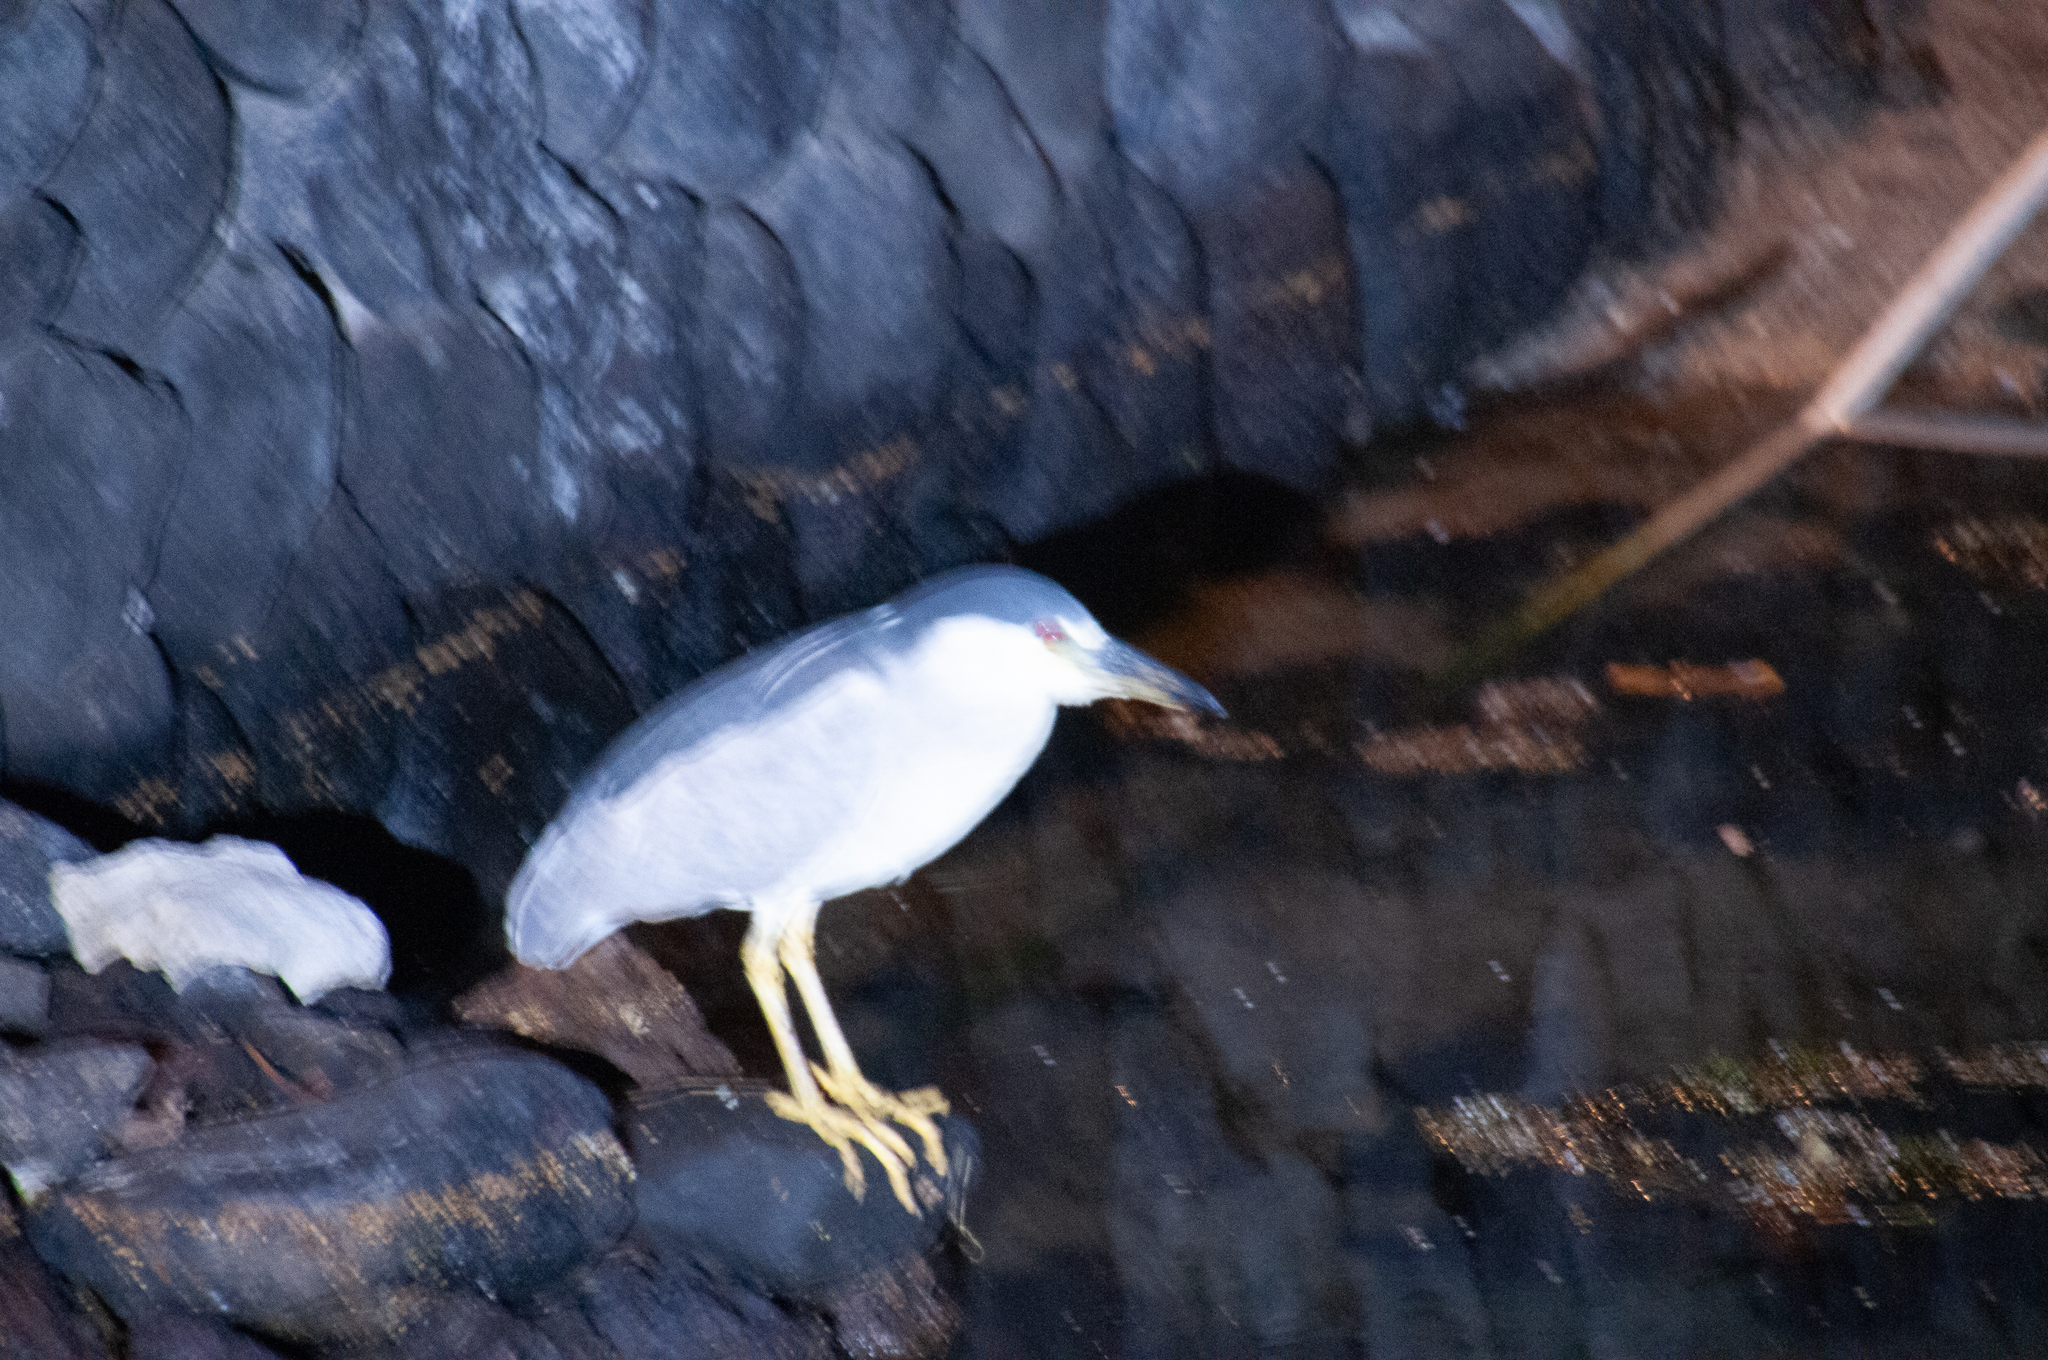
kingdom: Animalia
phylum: Chordata
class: Aves
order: Pelecaniformes
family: Ardeidae
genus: Nycticorax
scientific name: Nycticorax nycticorax
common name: Black-crowned night heron
